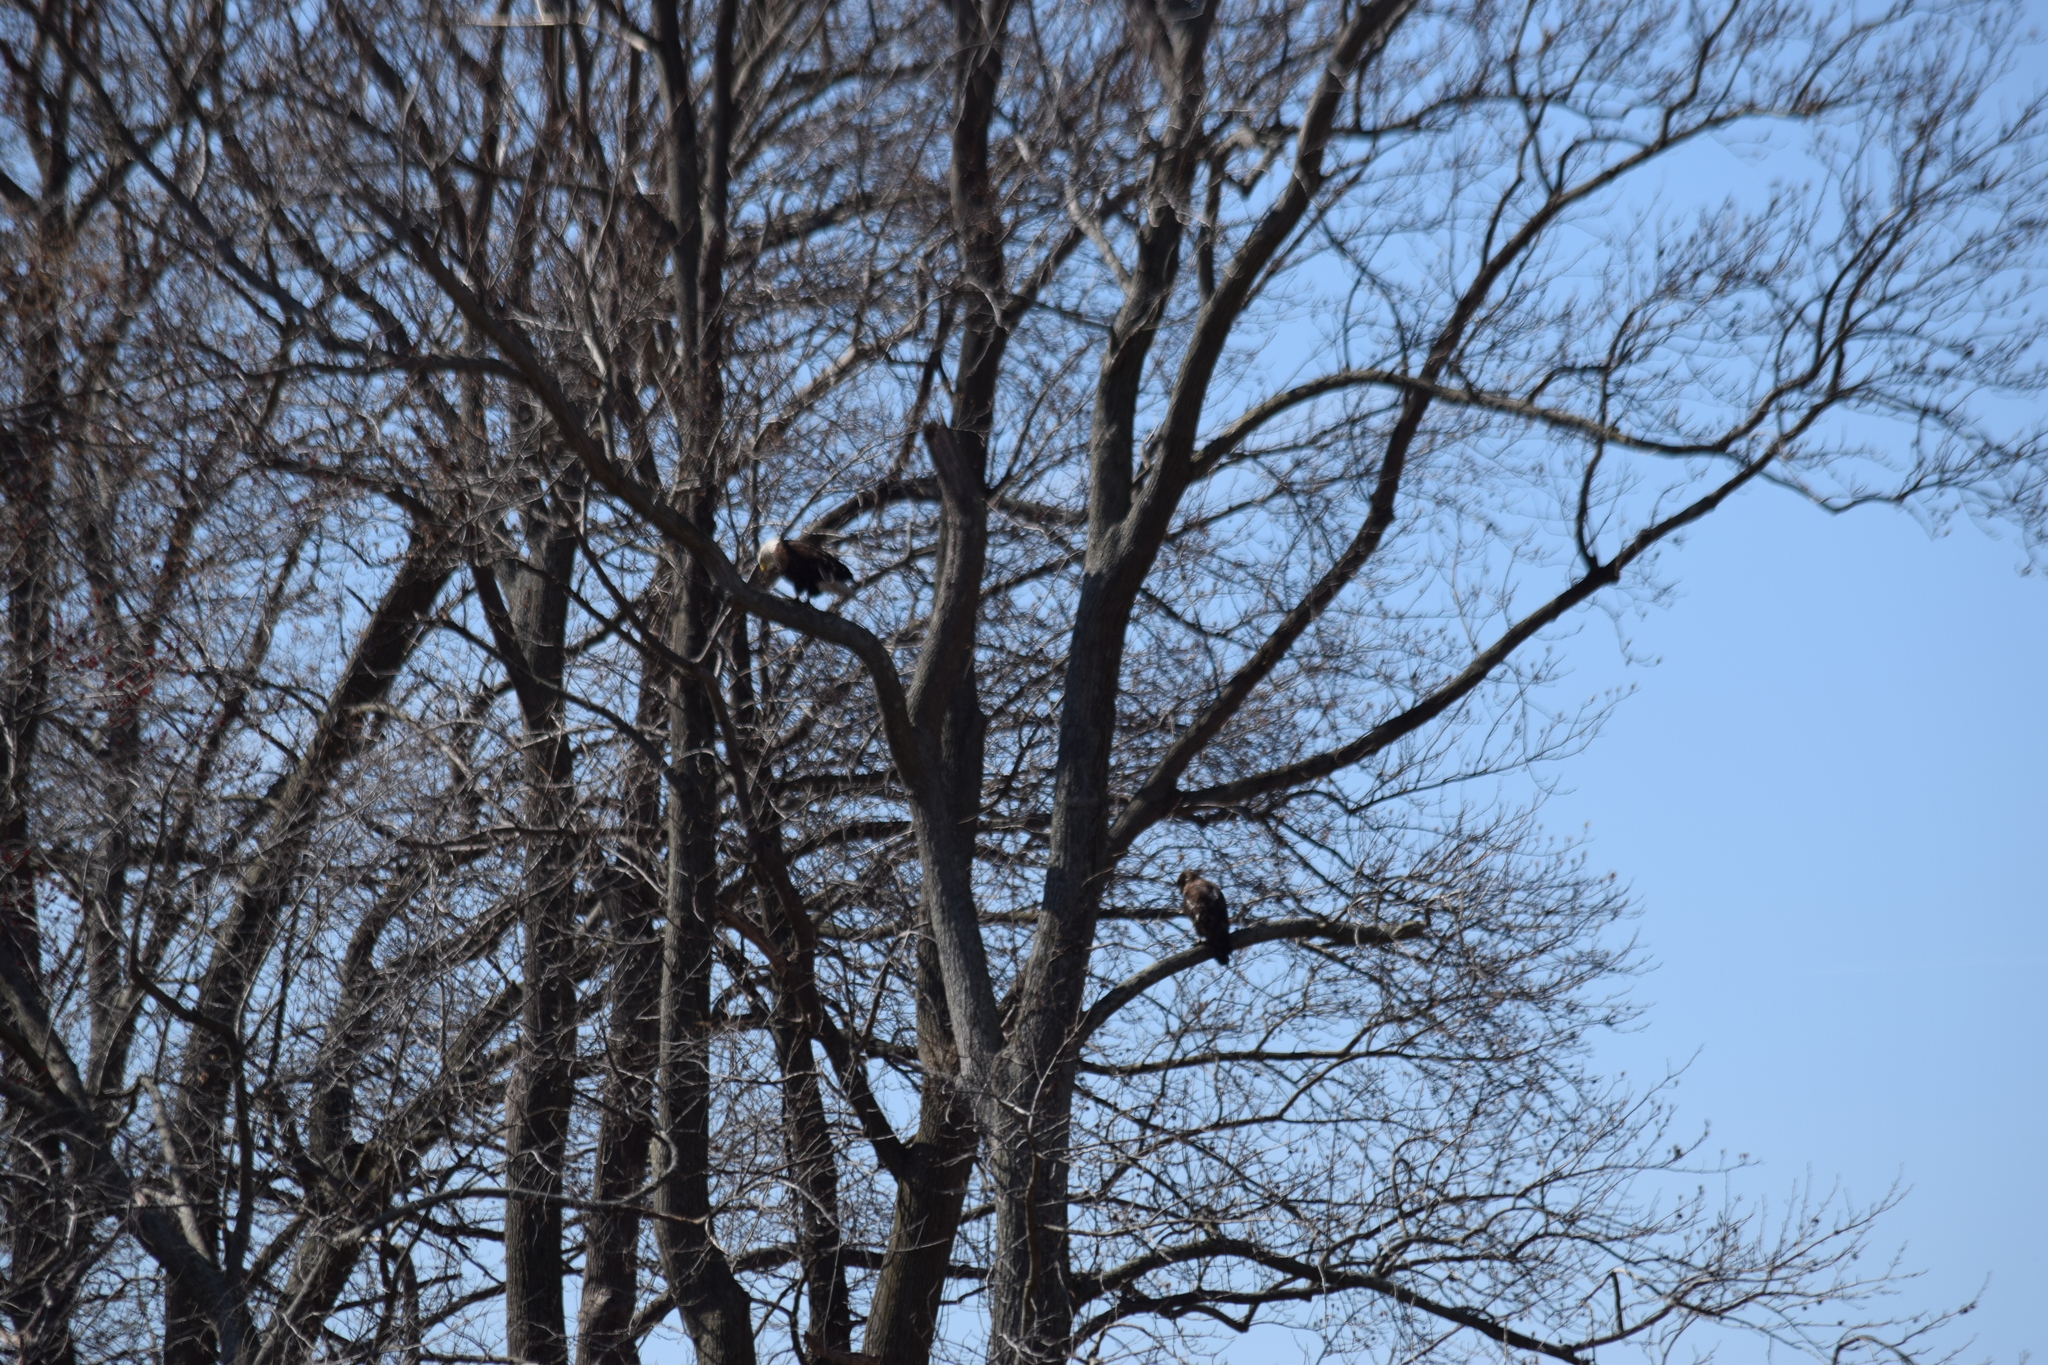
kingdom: Animalia
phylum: Chordata
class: Aves
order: Accipitriformes
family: Accipitridae
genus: Haliaeetus
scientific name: Haliaeetus leucocephalus
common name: Bald eagle
